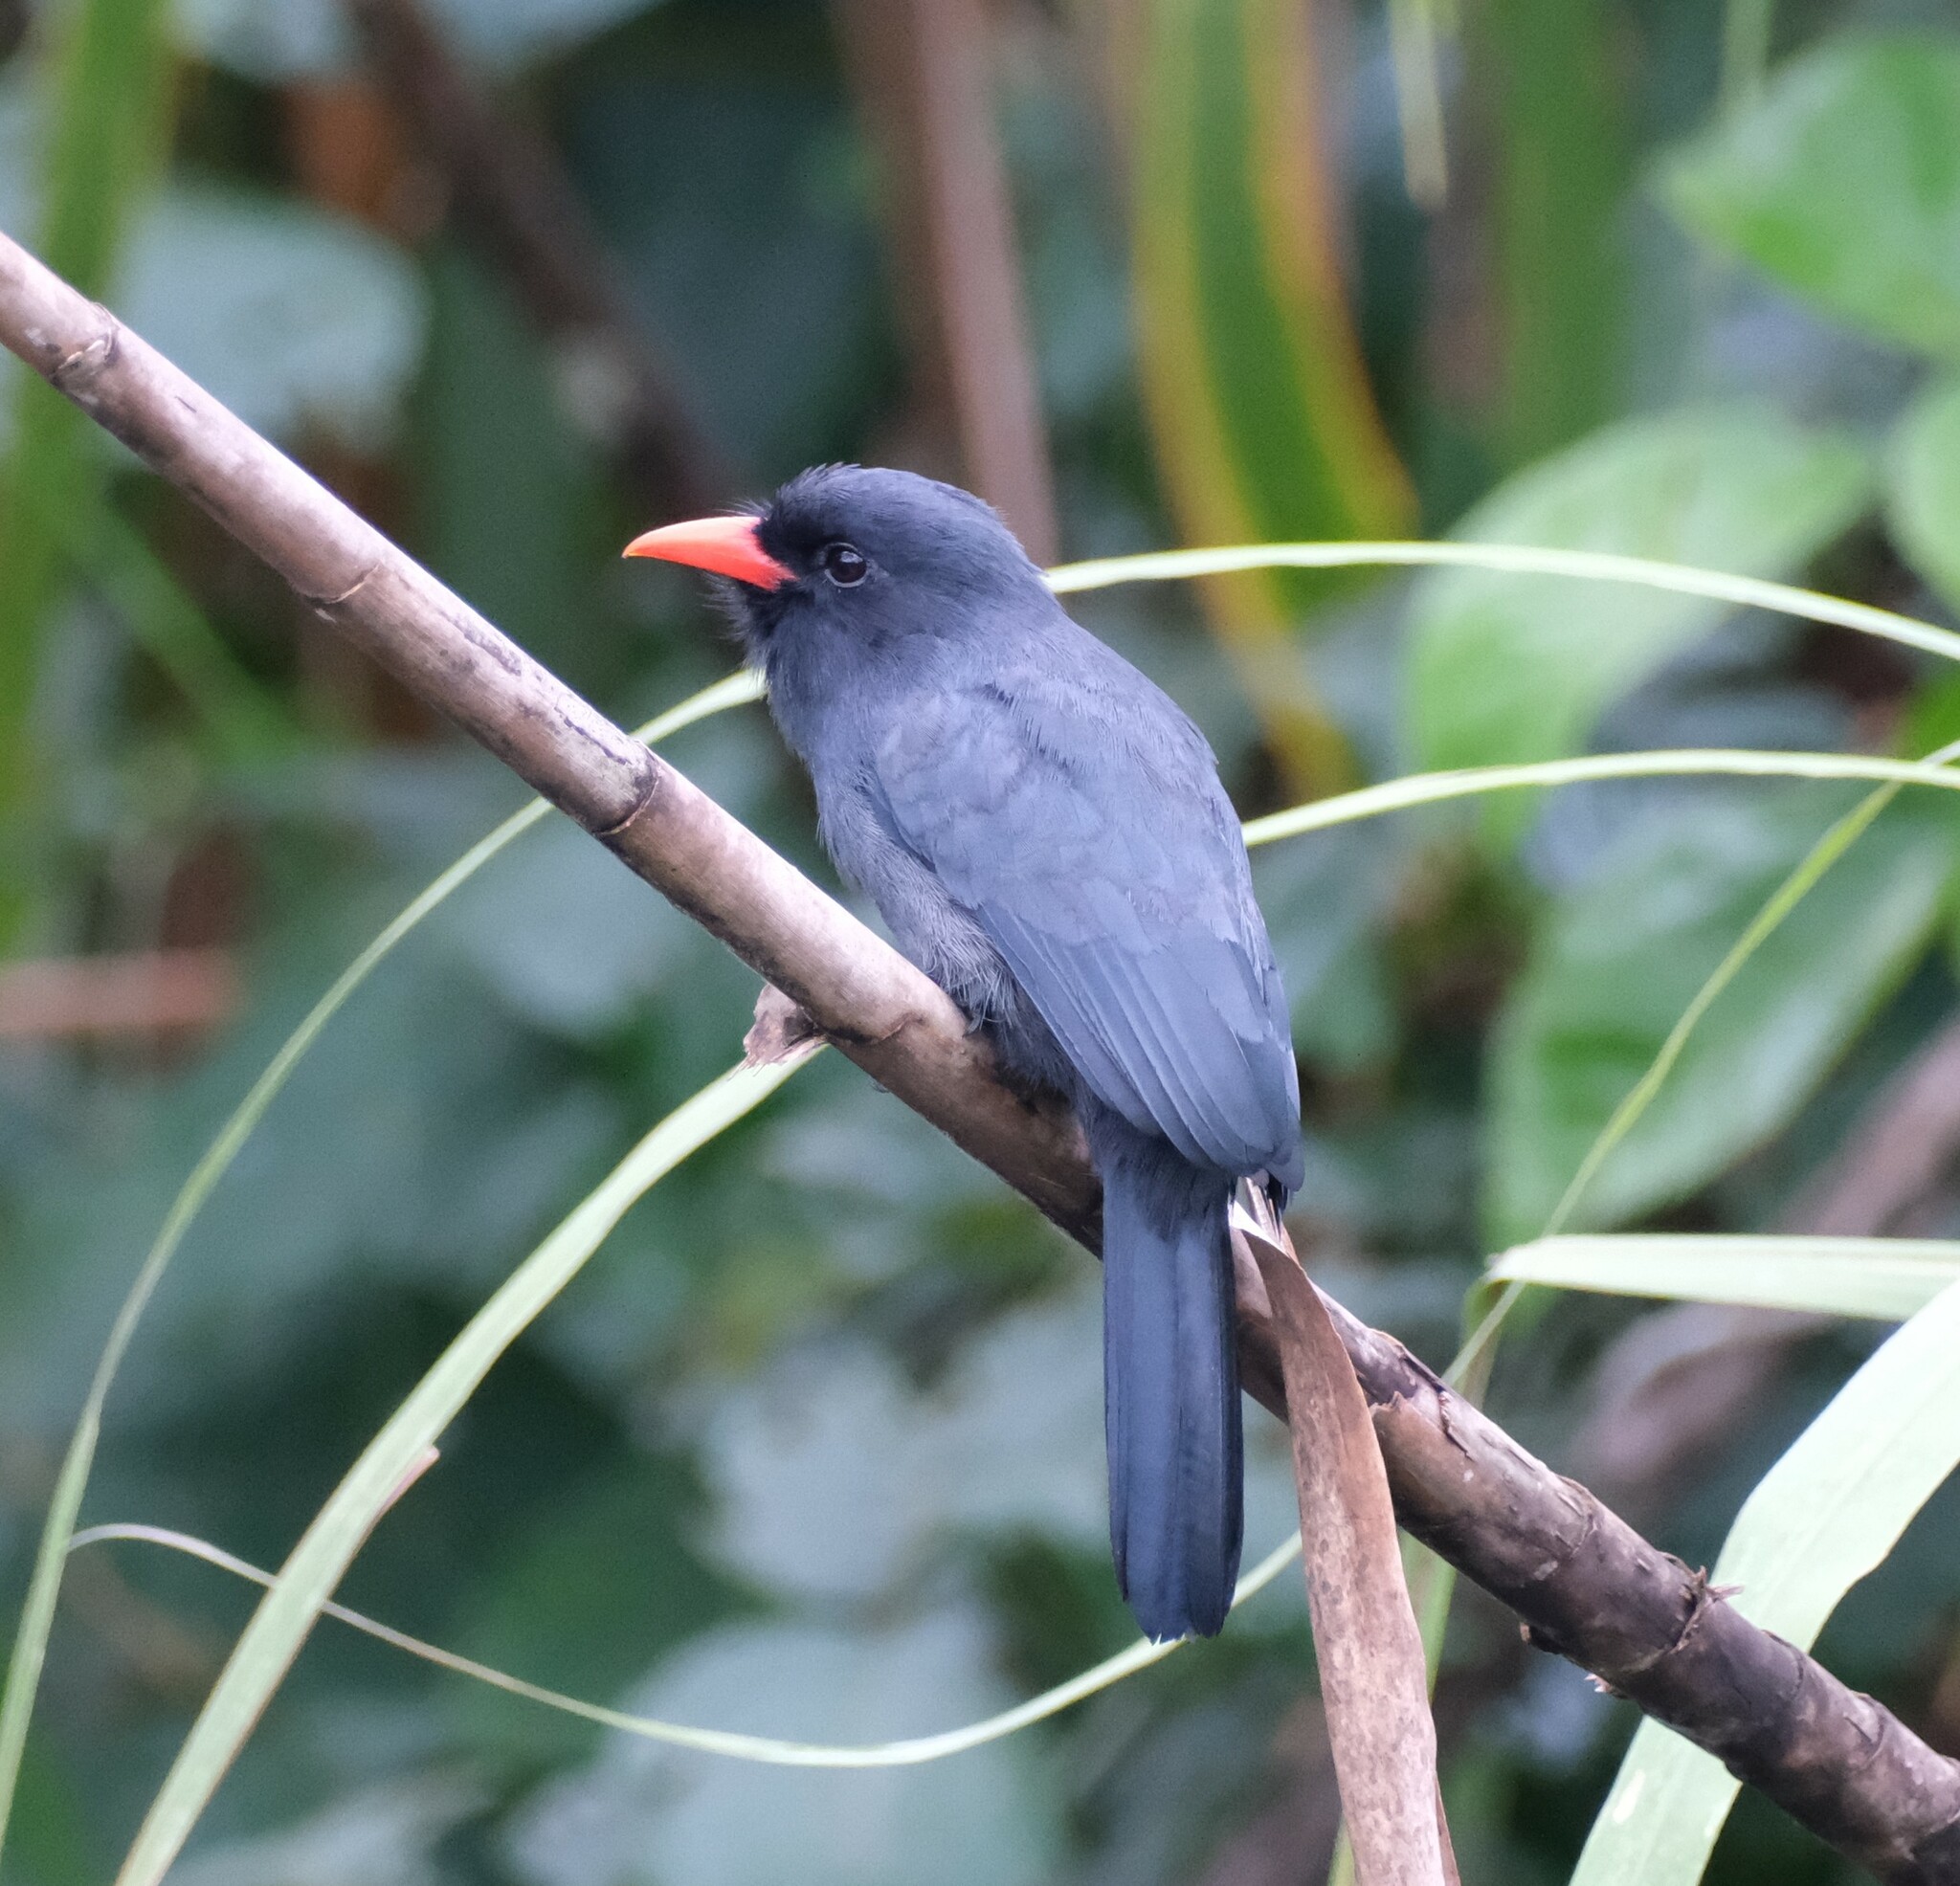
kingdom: Animalia
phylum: Chordata
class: Aves
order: Piciformes
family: Bucconidae
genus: Monasa
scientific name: Monasa nigrifrons
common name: Black-fronted nunbird
